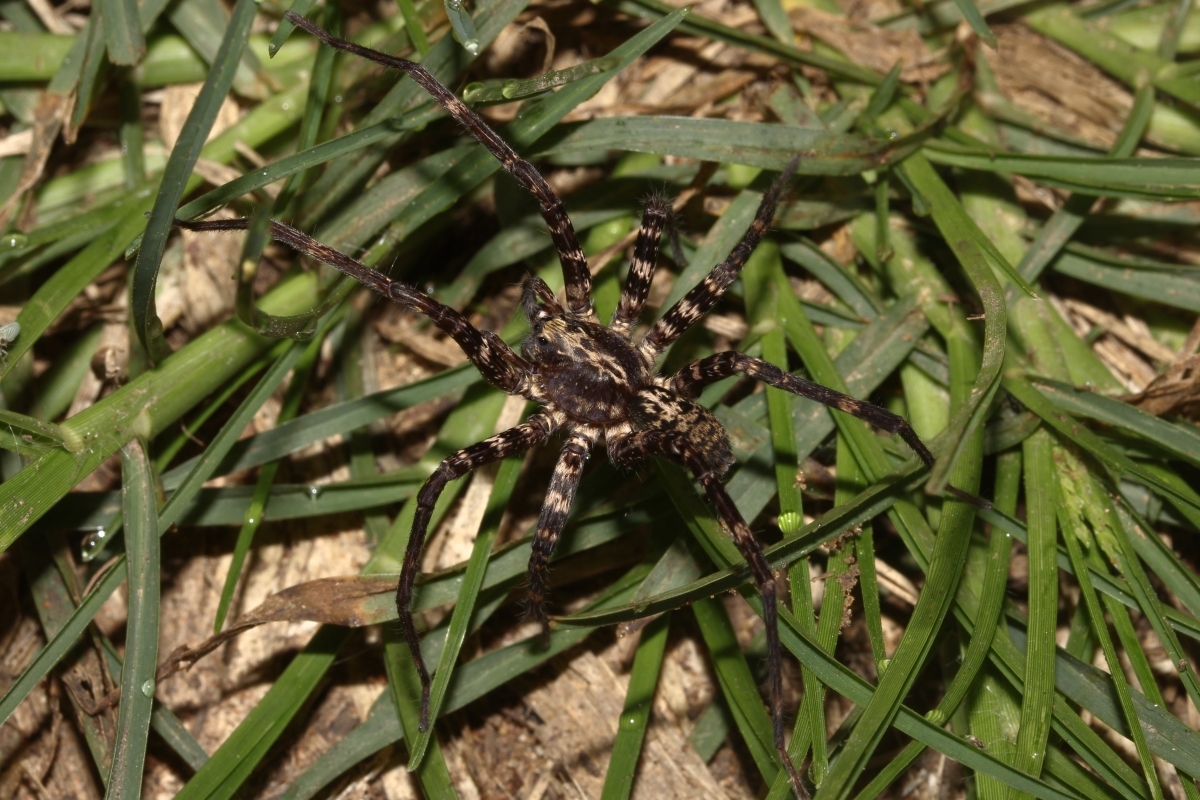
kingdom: Animalia
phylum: Arthropoda
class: Arachnida
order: Araneae
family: Ctenidae
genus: Ctenus
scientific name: Ctenus inaja
